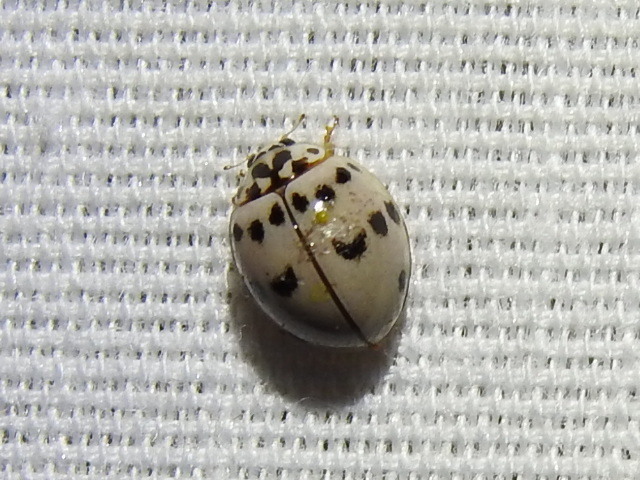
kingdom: Animalia
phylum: Arthropoda
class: Insecta
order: Coleoptera
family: Coccinellidae
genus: Olla
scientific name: Olla v-nigrum
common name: Ashy gray lady beetle
